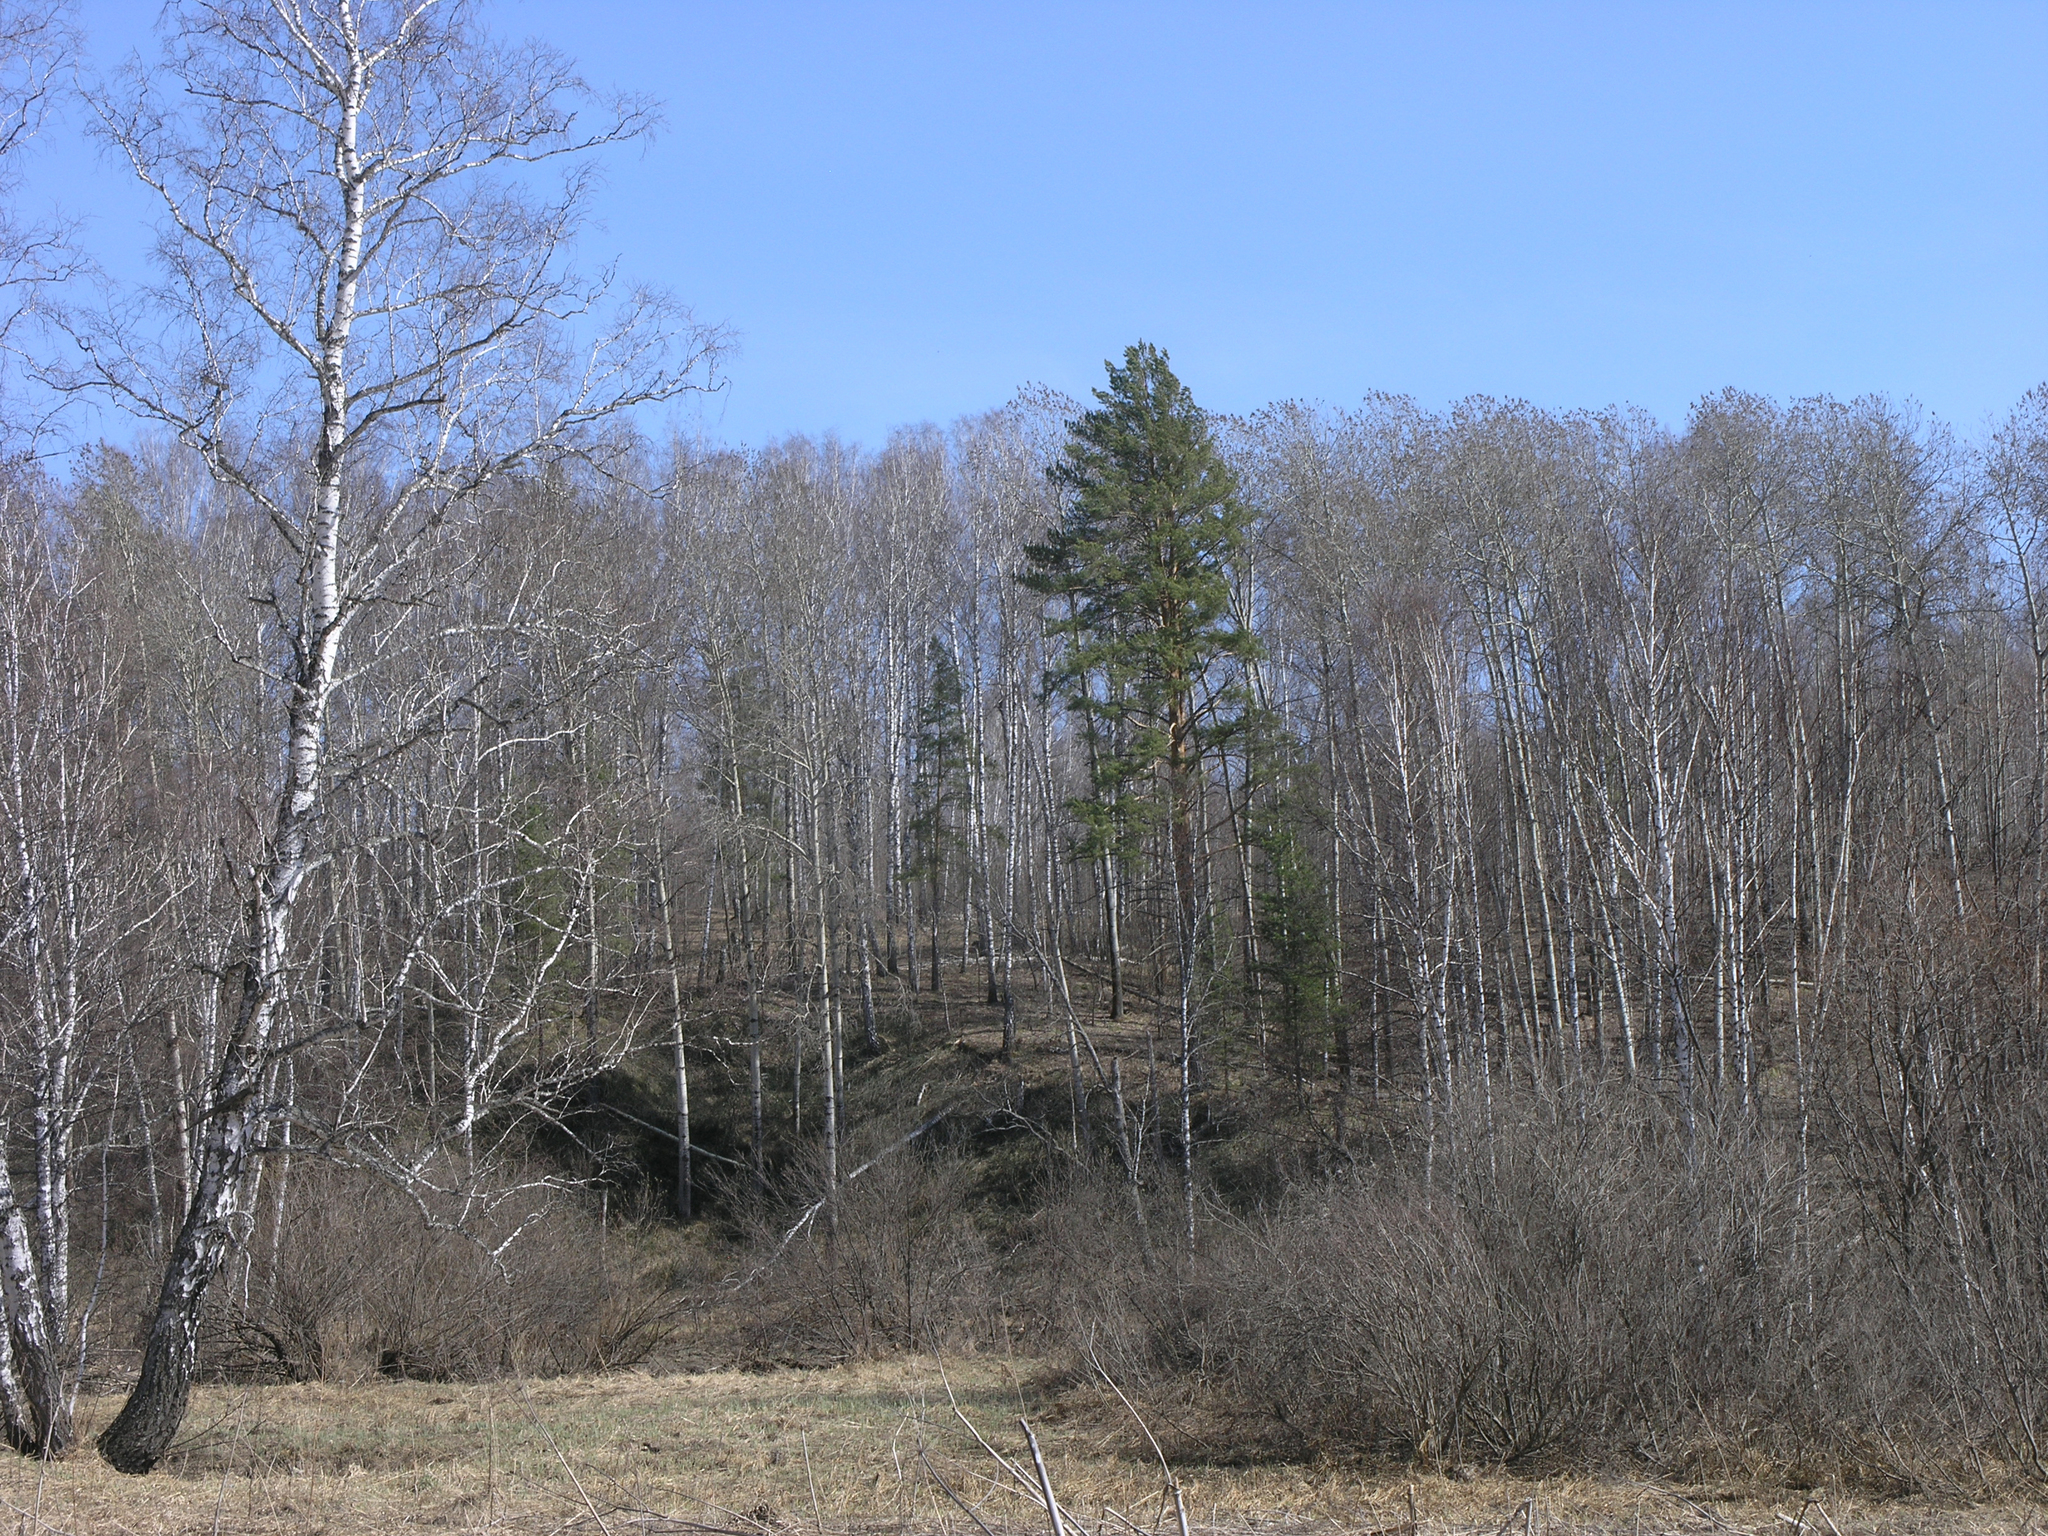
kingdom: Plantae
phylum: Tracheophyta
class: Pinopsida
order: Pinales
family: Pinaceae
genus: Pinus
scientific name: Pinus sylvestris
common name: Scots pine
